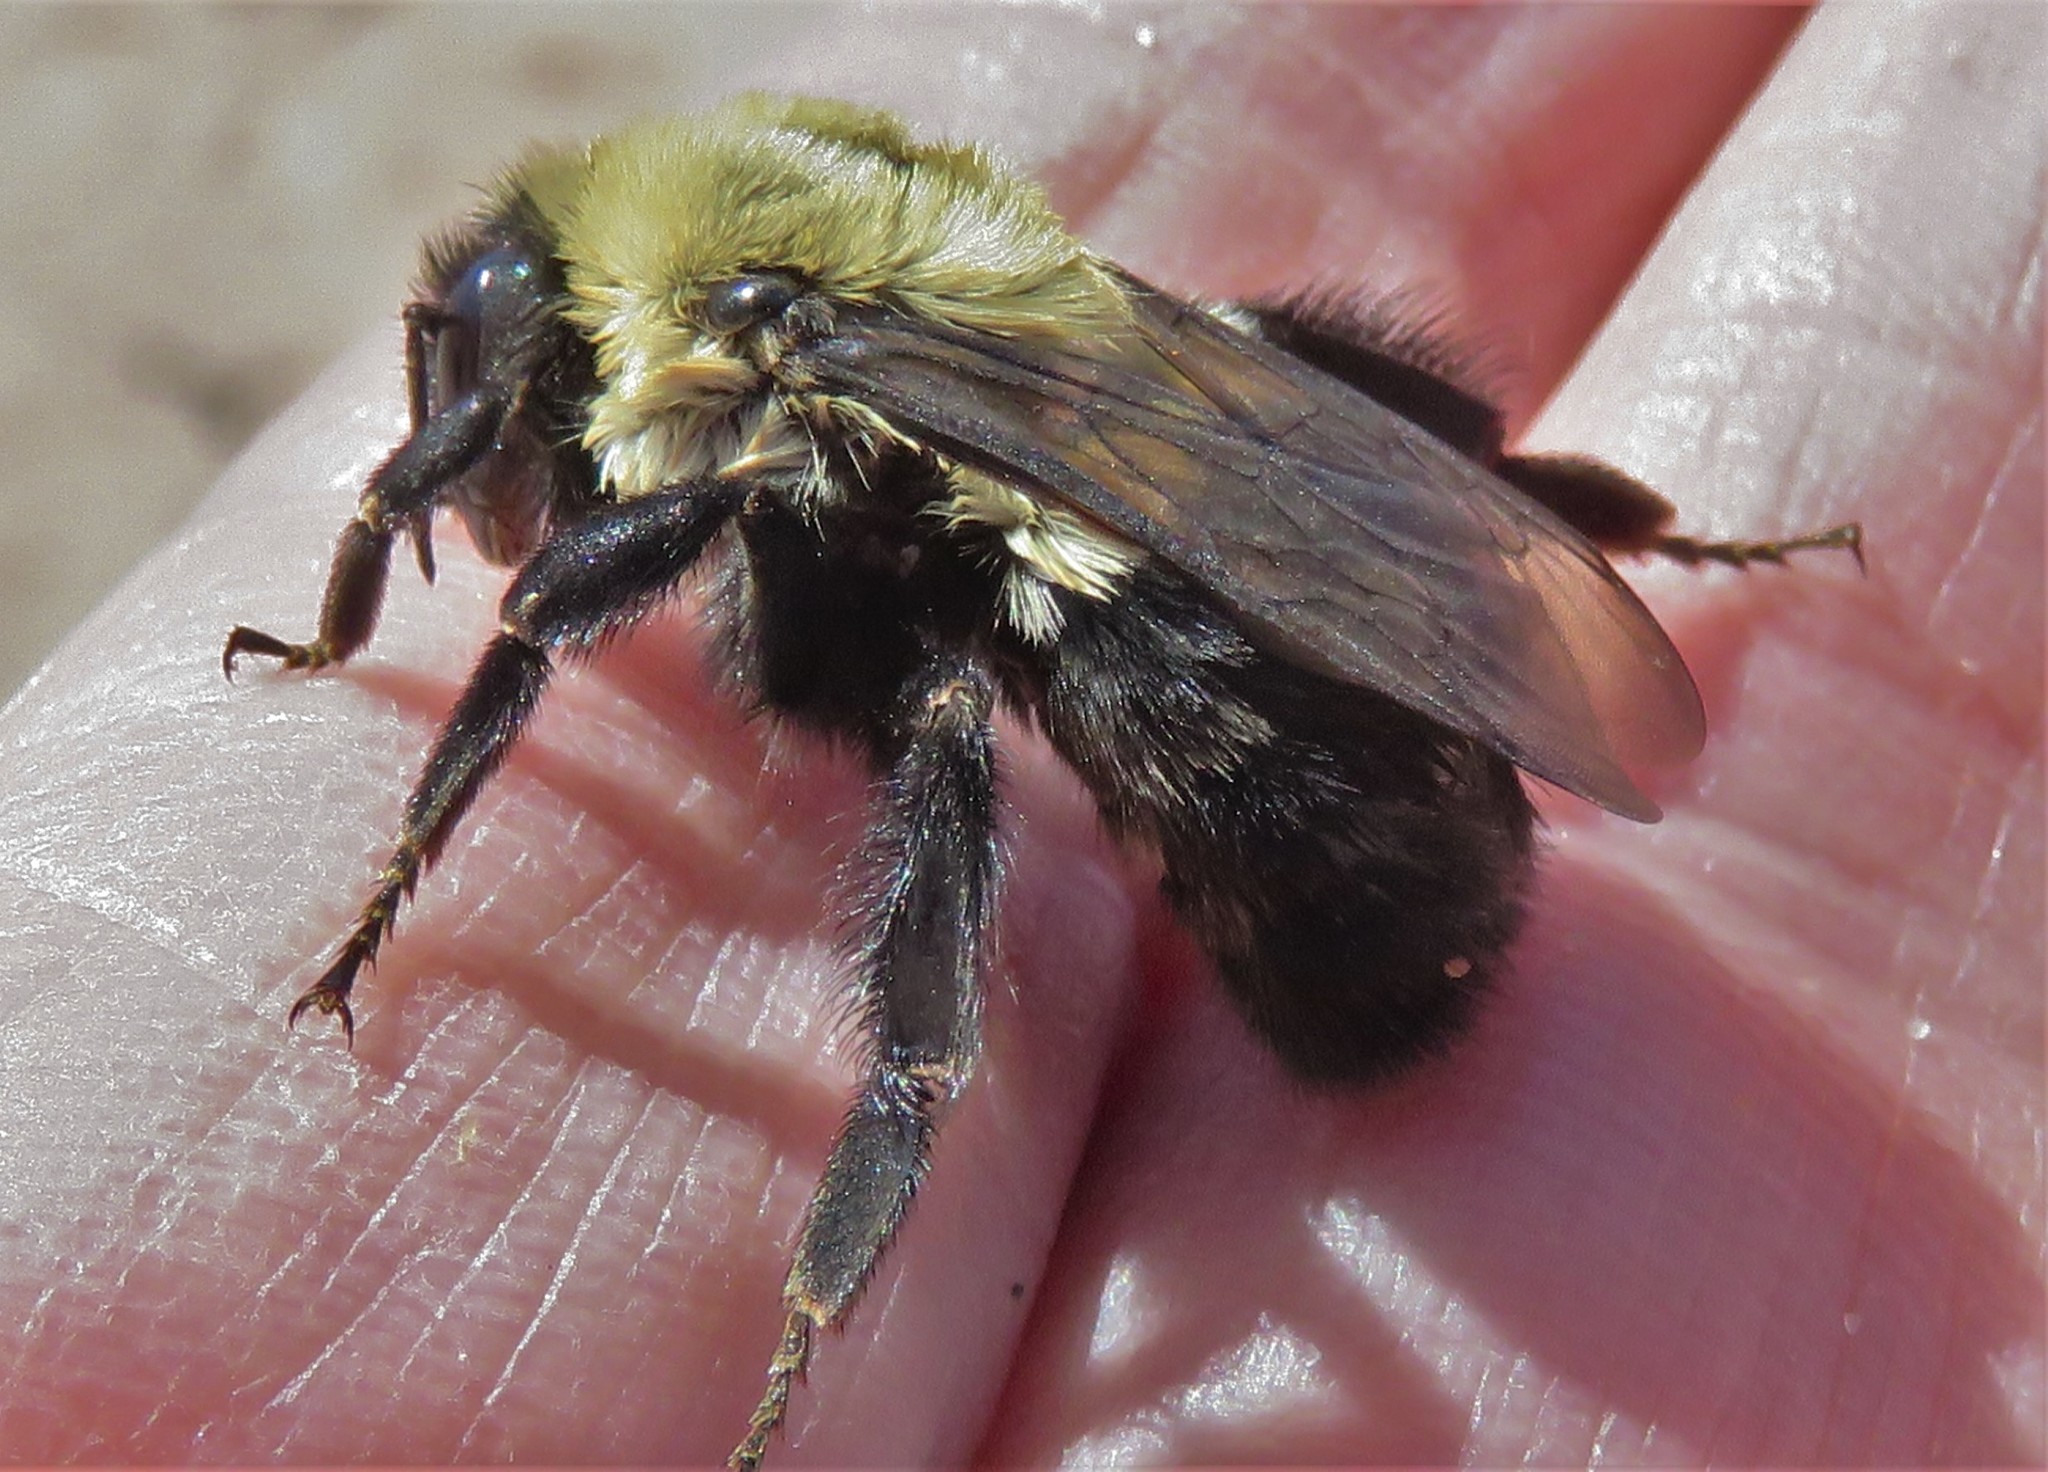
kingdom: Animalia
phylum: Arthropoda
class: Insecta
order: Hymenoptera
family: Apidae
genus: Bombus
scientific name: Bombus impatiens
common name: Common eastern bumble bee
